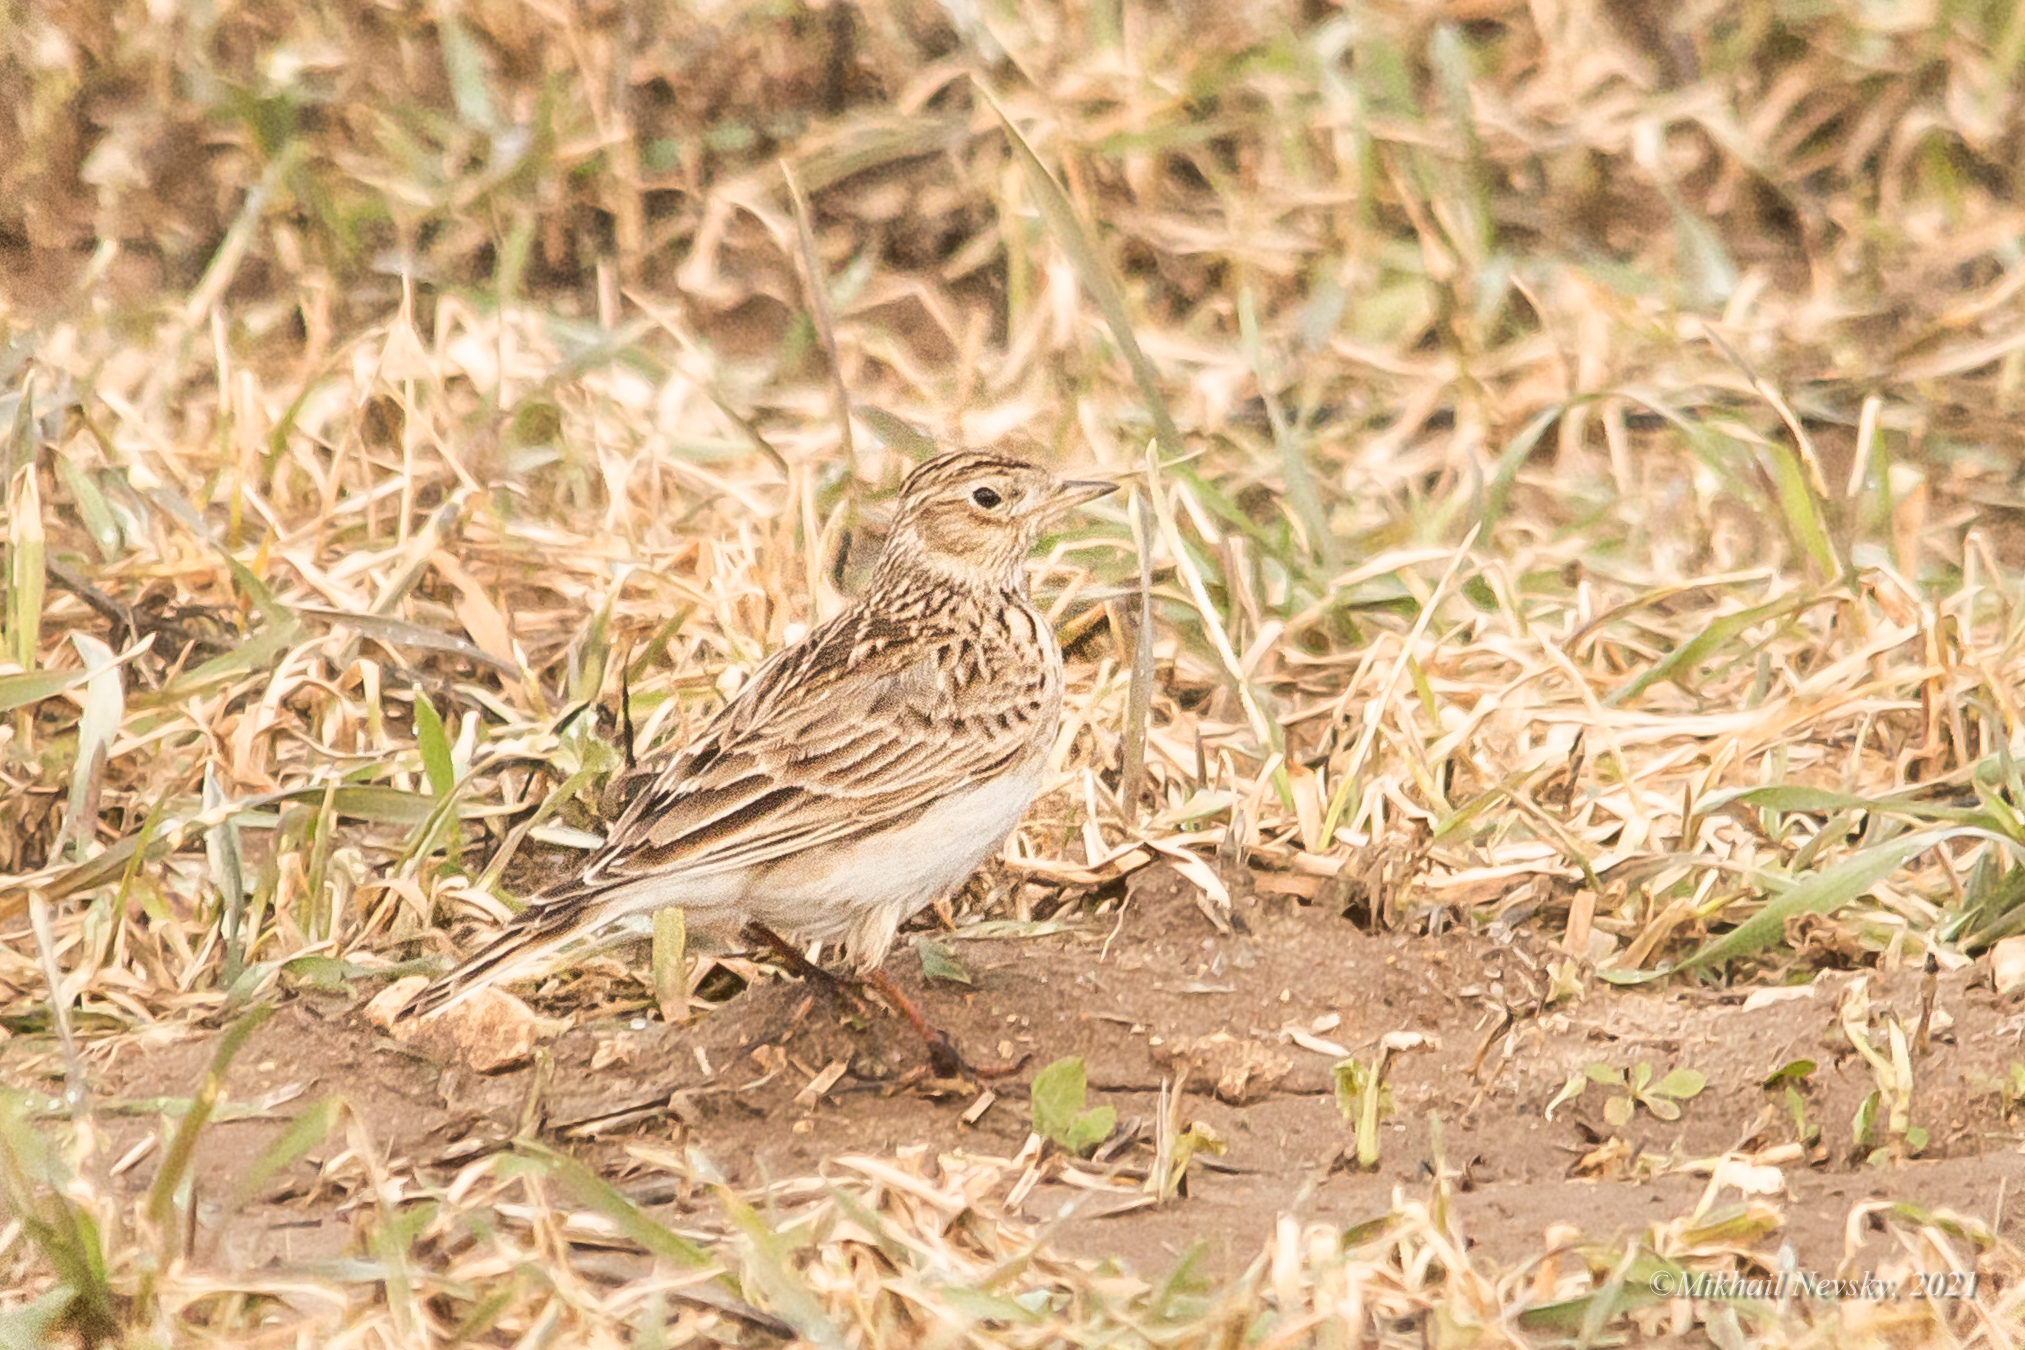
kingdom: Animalia
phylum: Chordata
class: Aves
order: Passeriformes
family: Alaudidae
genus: Alauda
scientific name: Alauda arvensis
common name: Eurasian skylark
